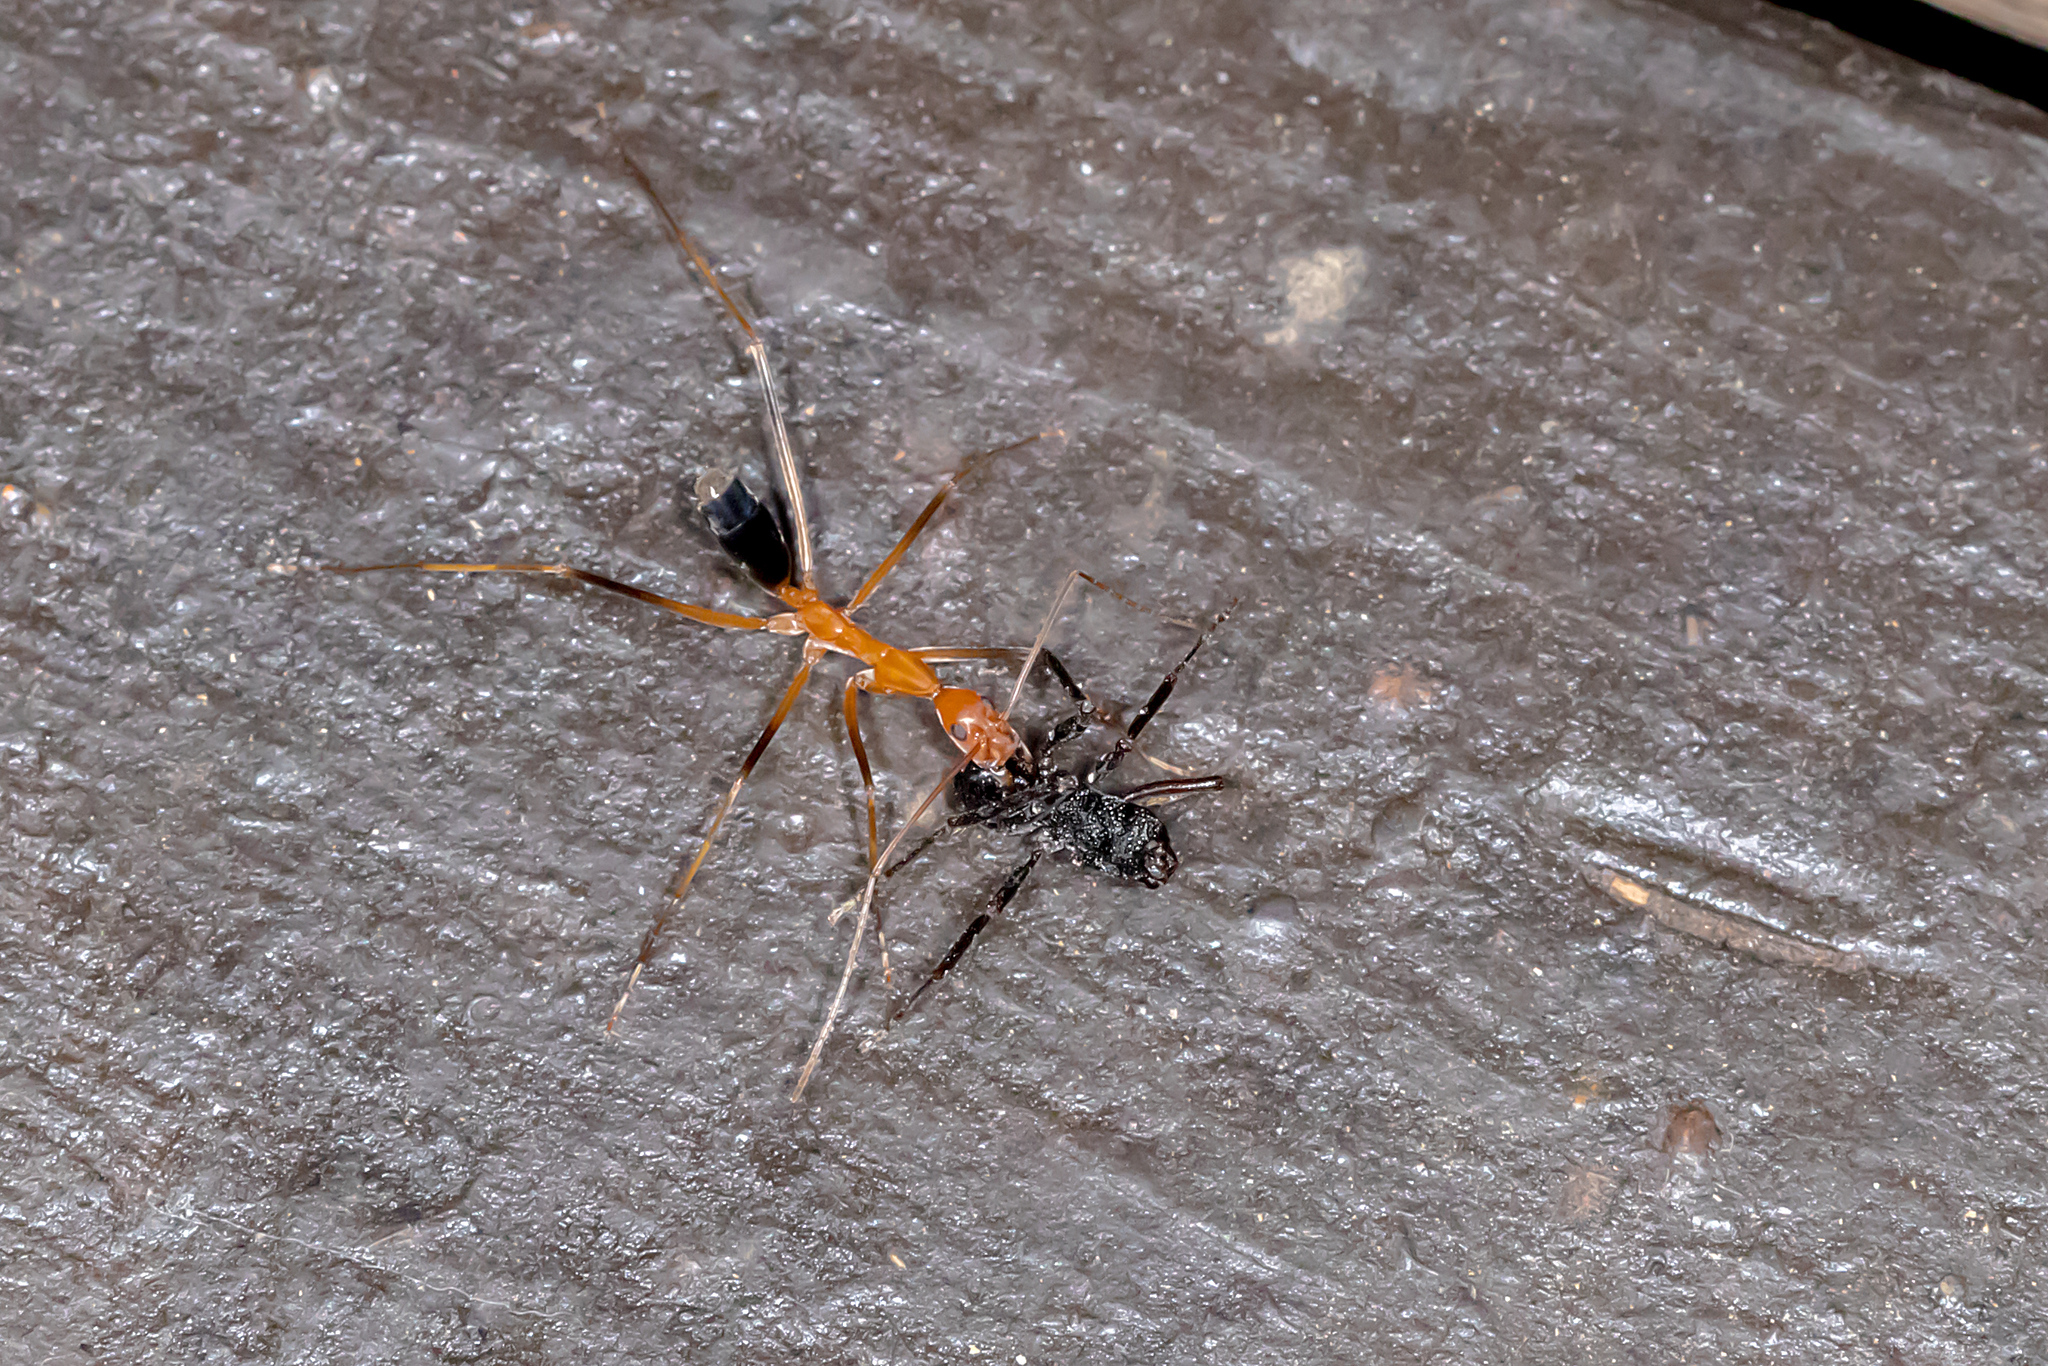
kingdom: Animalia
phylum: Arthropoda
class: Insecta
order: Hymenoptera
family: Formicidae
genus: Leptomyrmex
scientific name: Leptomyrmex rufipes
